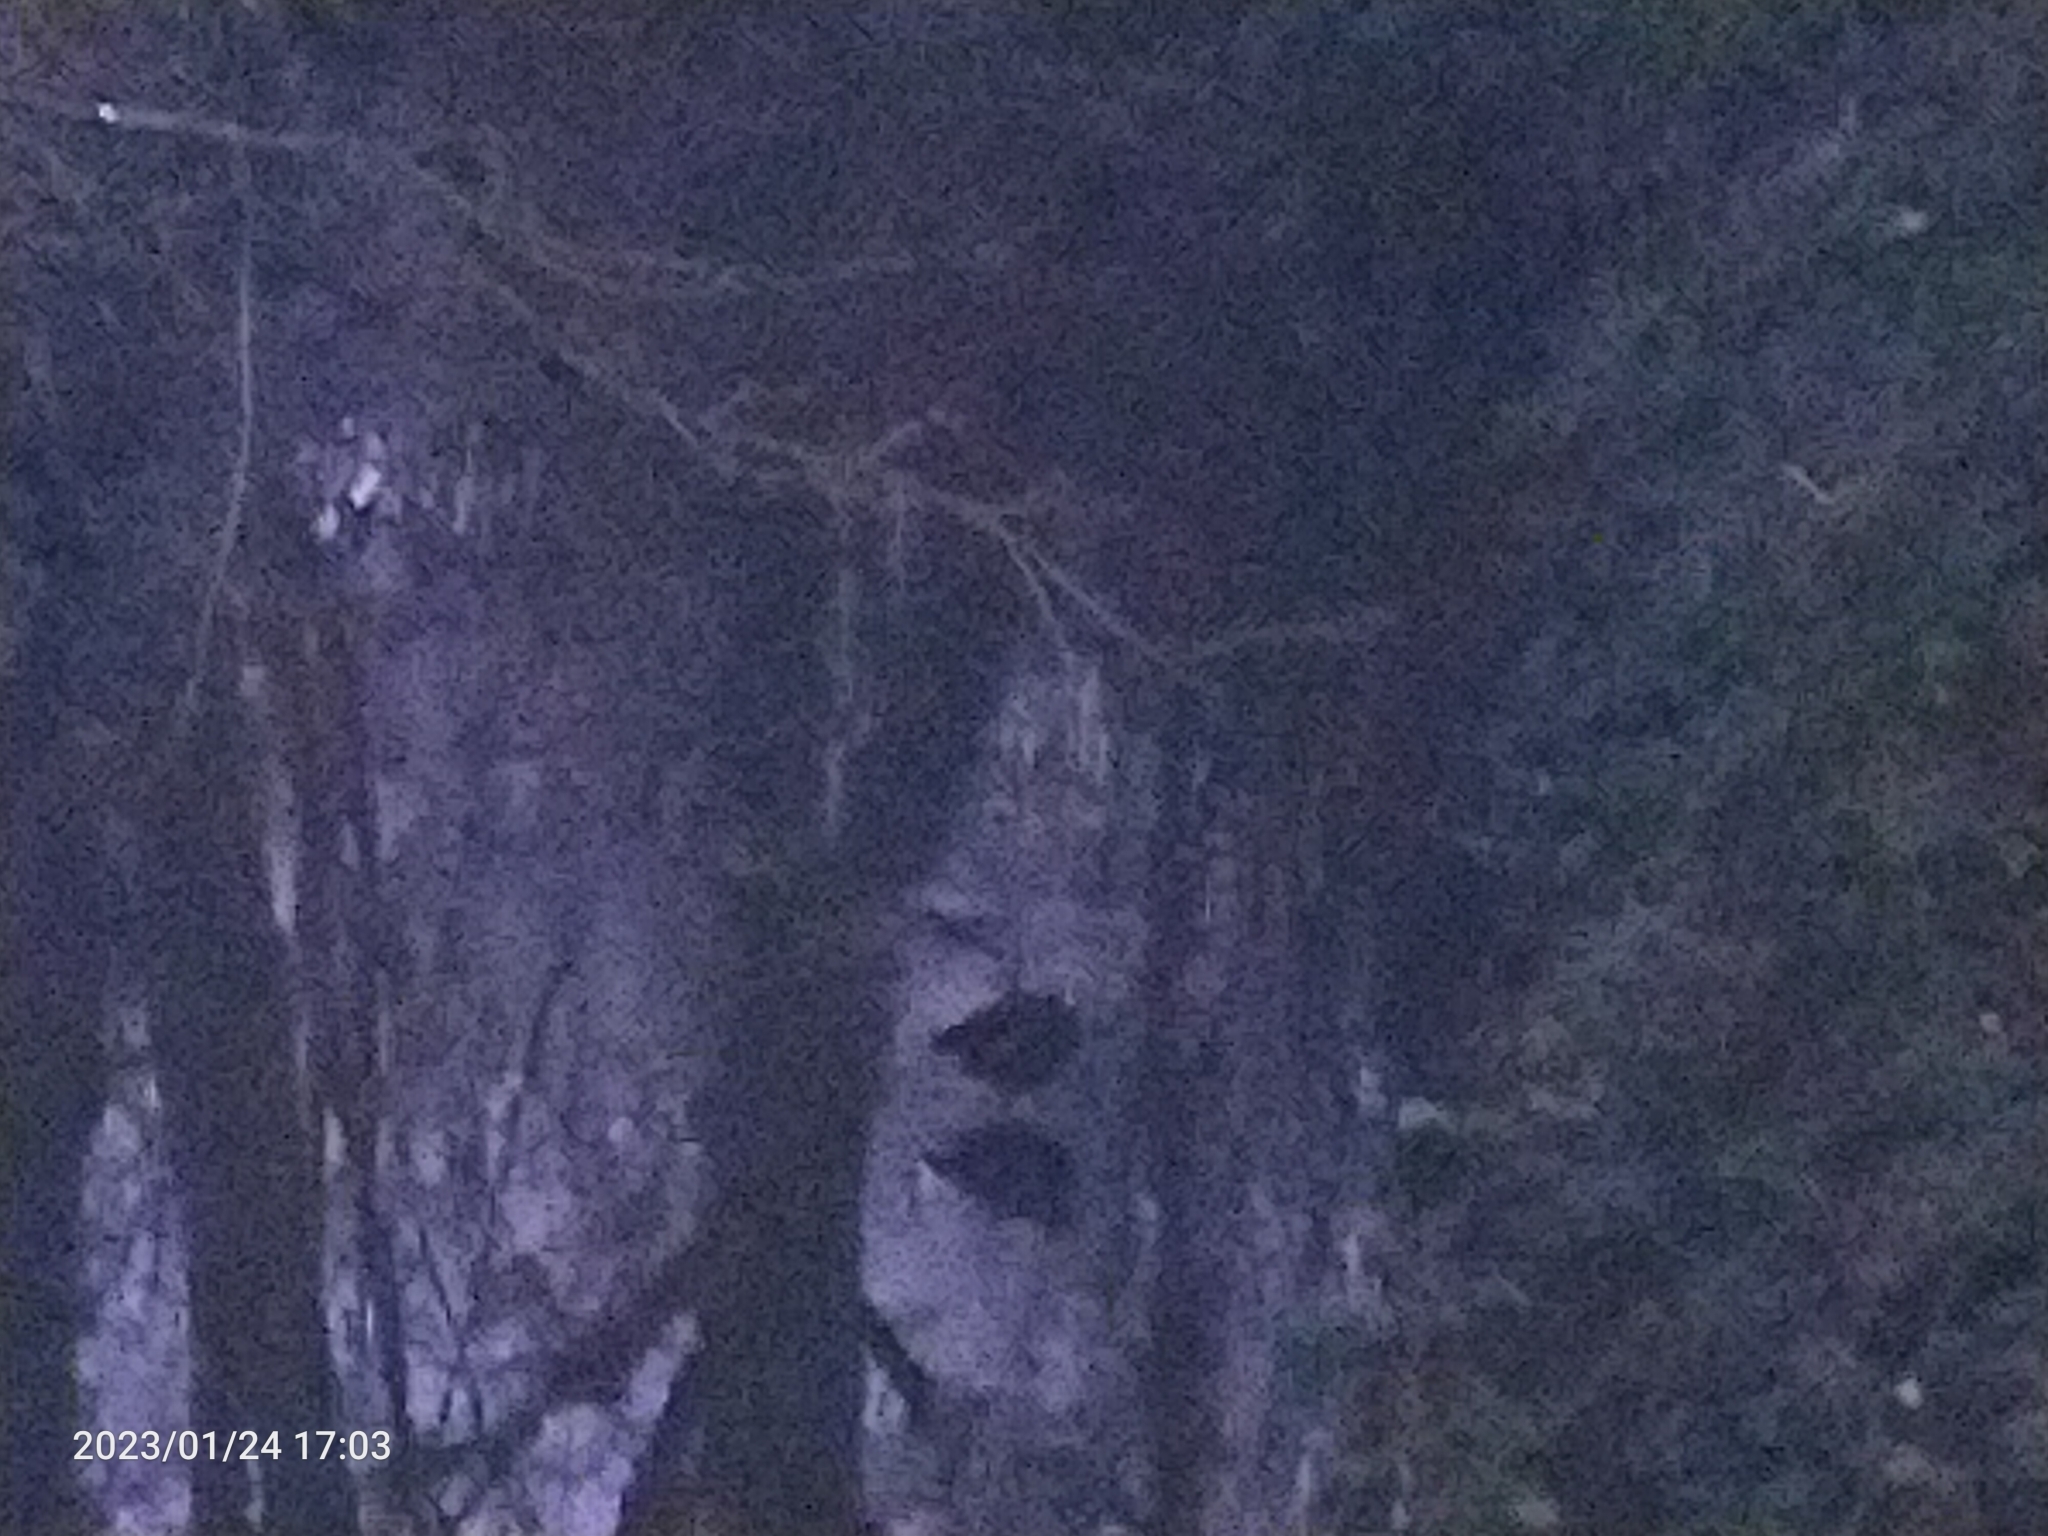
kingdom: Animalia
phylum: Chordata
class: Aves
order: Gruiformes
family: Rallidae
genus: Gallinula
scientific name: Gallinula chloropus
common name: Common moorhen
